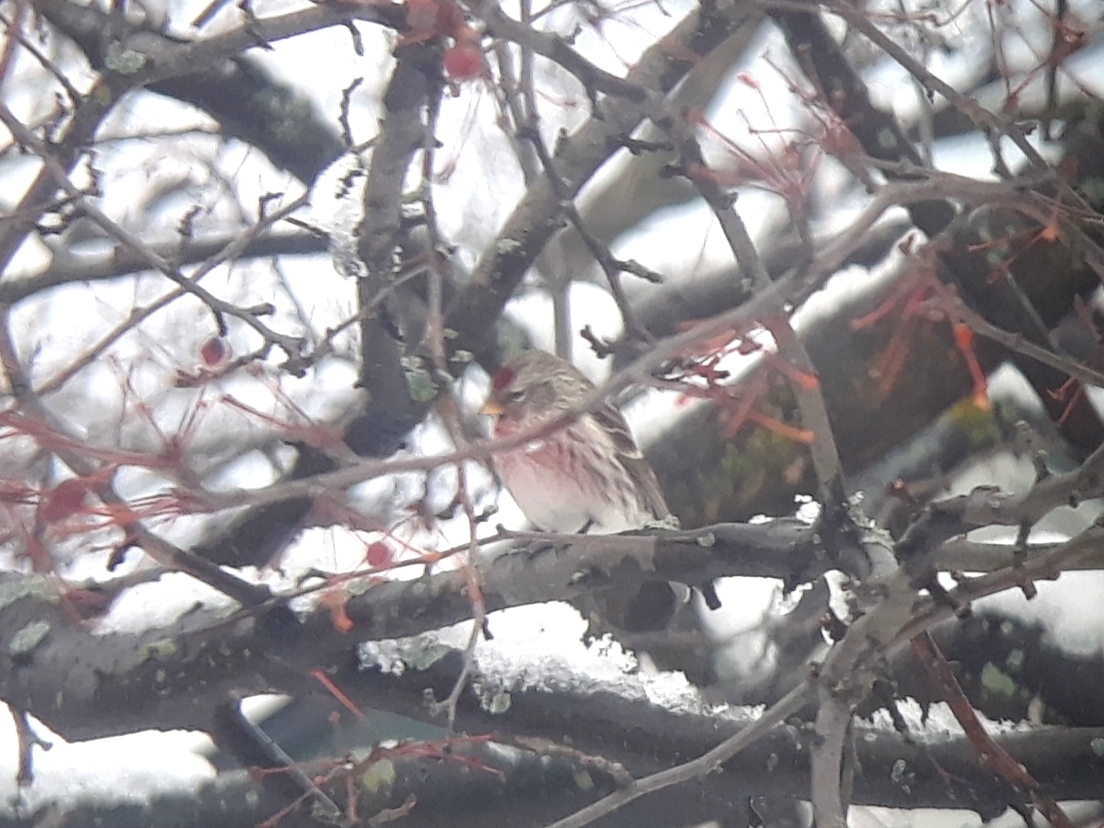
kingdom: Animalia
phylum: Chordata
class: Aves
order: Passeriformes
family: Fringillidae
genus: Acanthis
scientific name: Acanthis flammea
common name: Common redpoll
